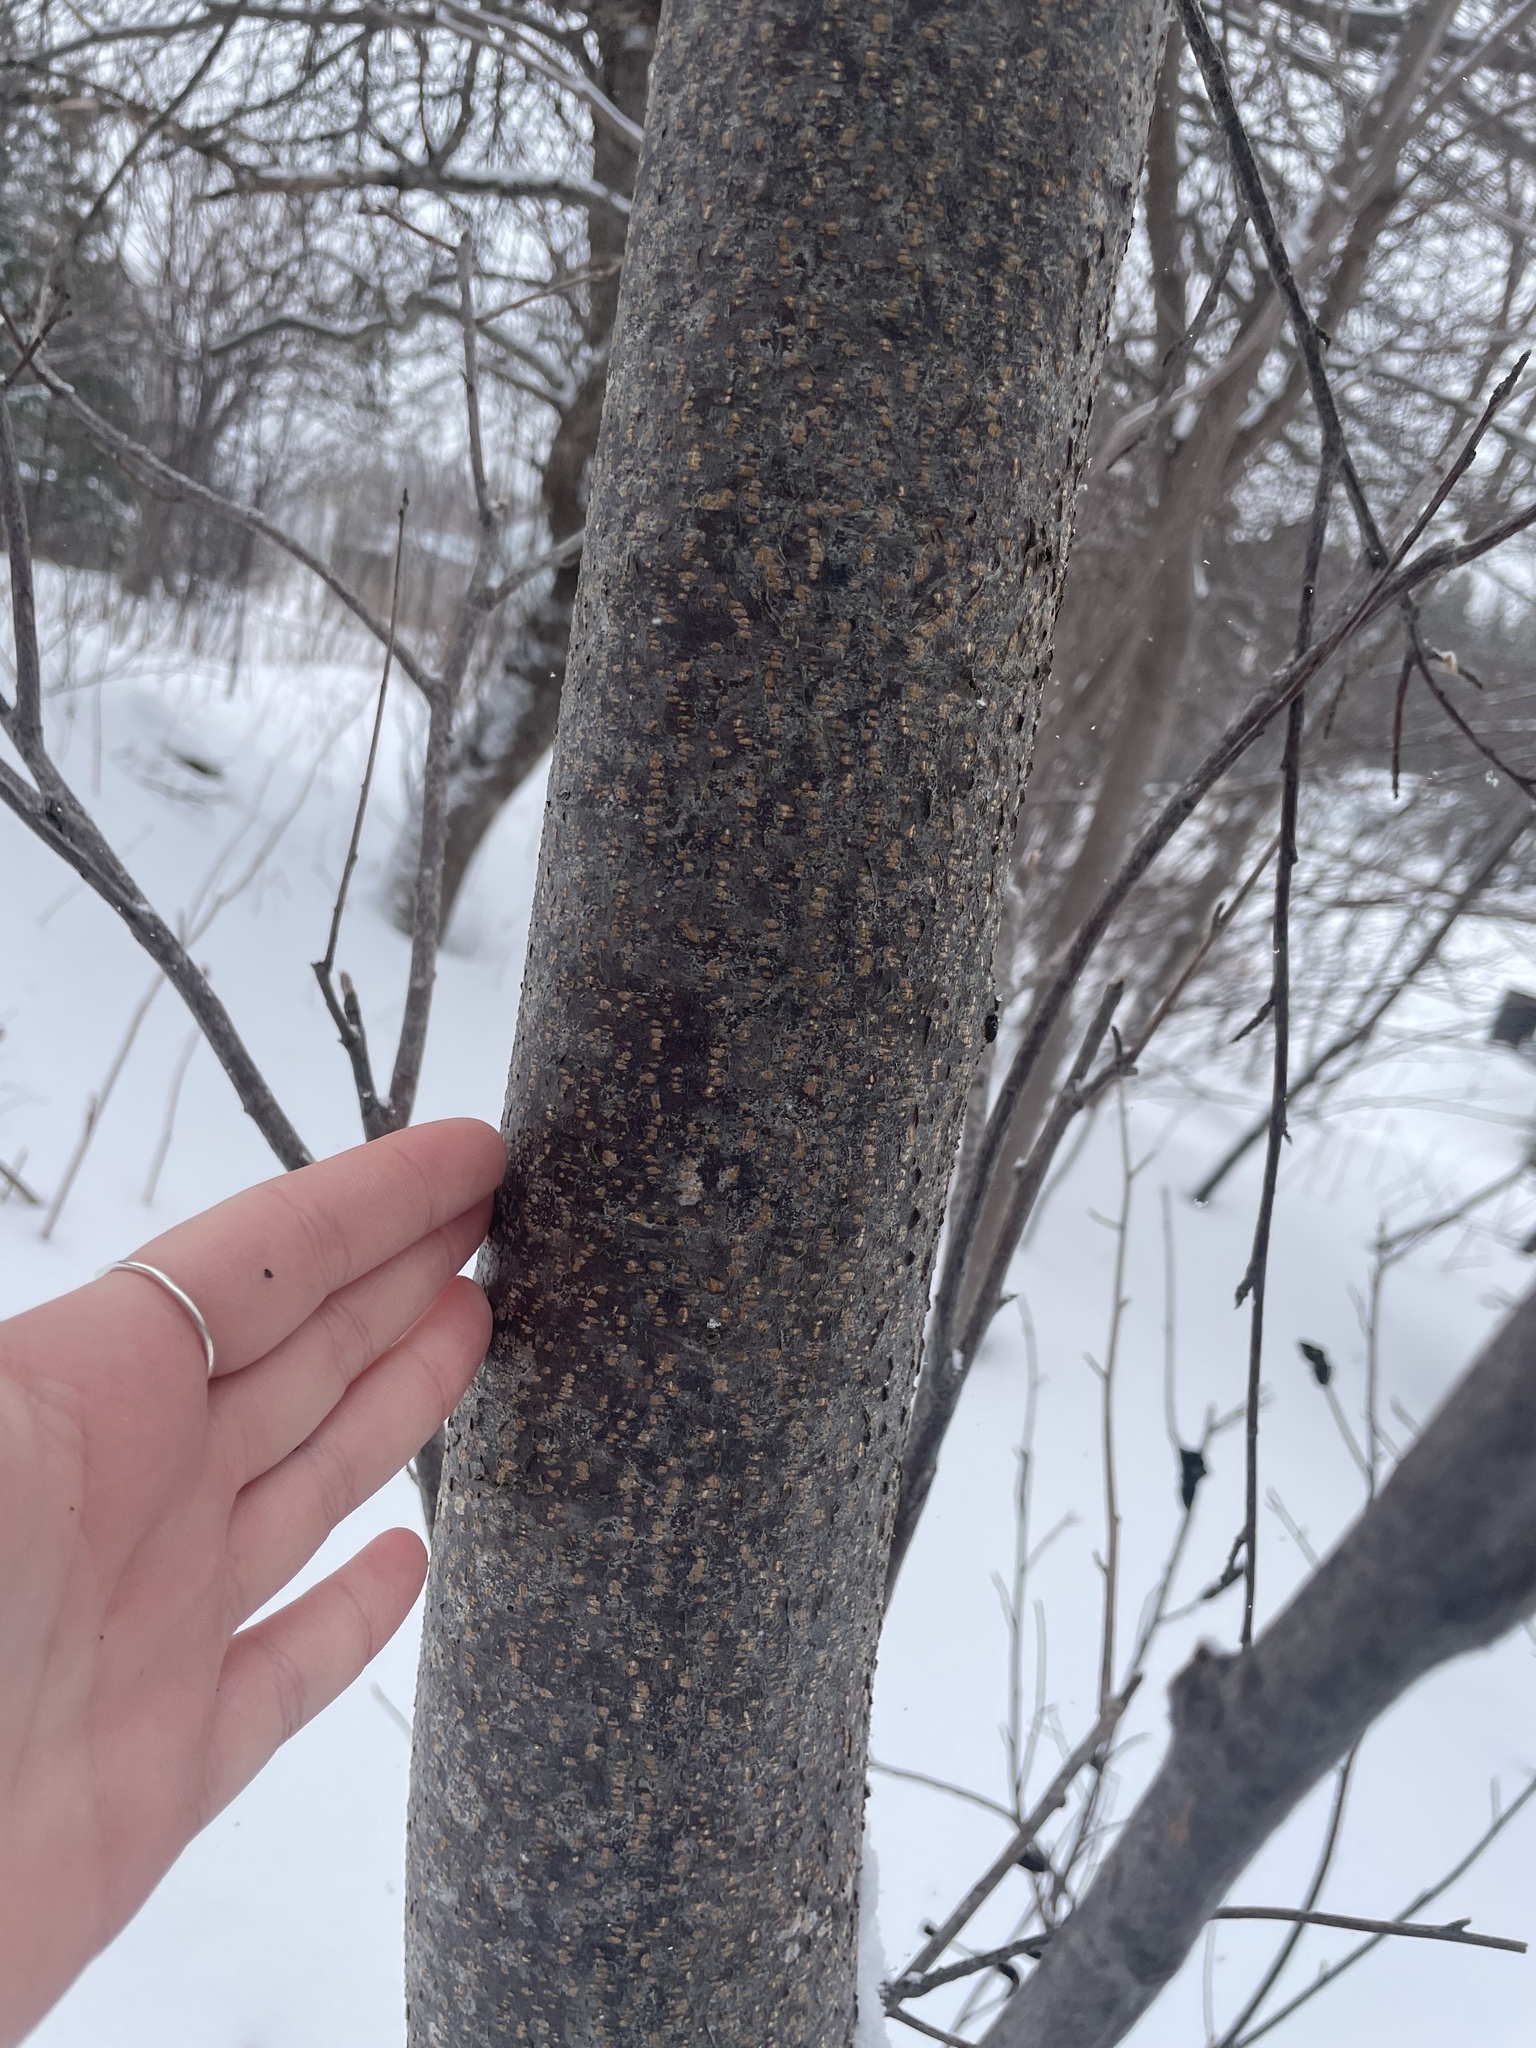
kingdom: Fungi
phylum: Ascomycota
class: Dothideomycetes
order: Venturiales
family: Venturiaceae
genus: Apiosporina
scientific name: Apiosporina morbosa
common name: Black knot
